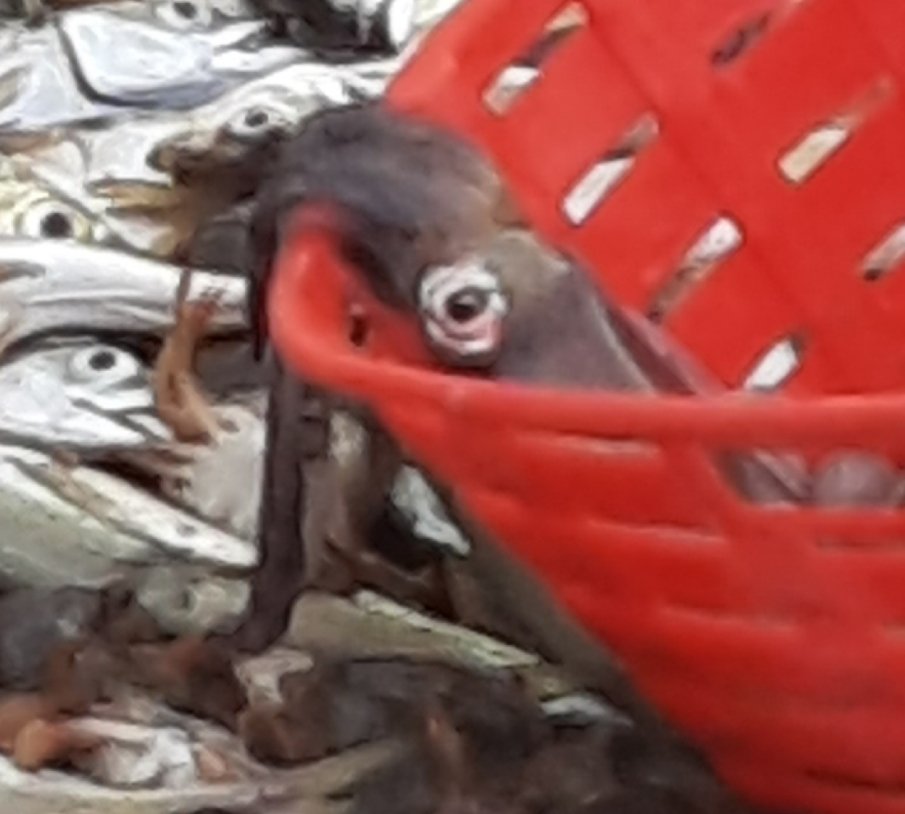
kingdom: Animalia
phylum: Mollusca
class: Cephalopoda
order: Myopsida
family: Loliginidae
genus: Loligo
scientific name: Loligo vulgaris
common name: European squid
